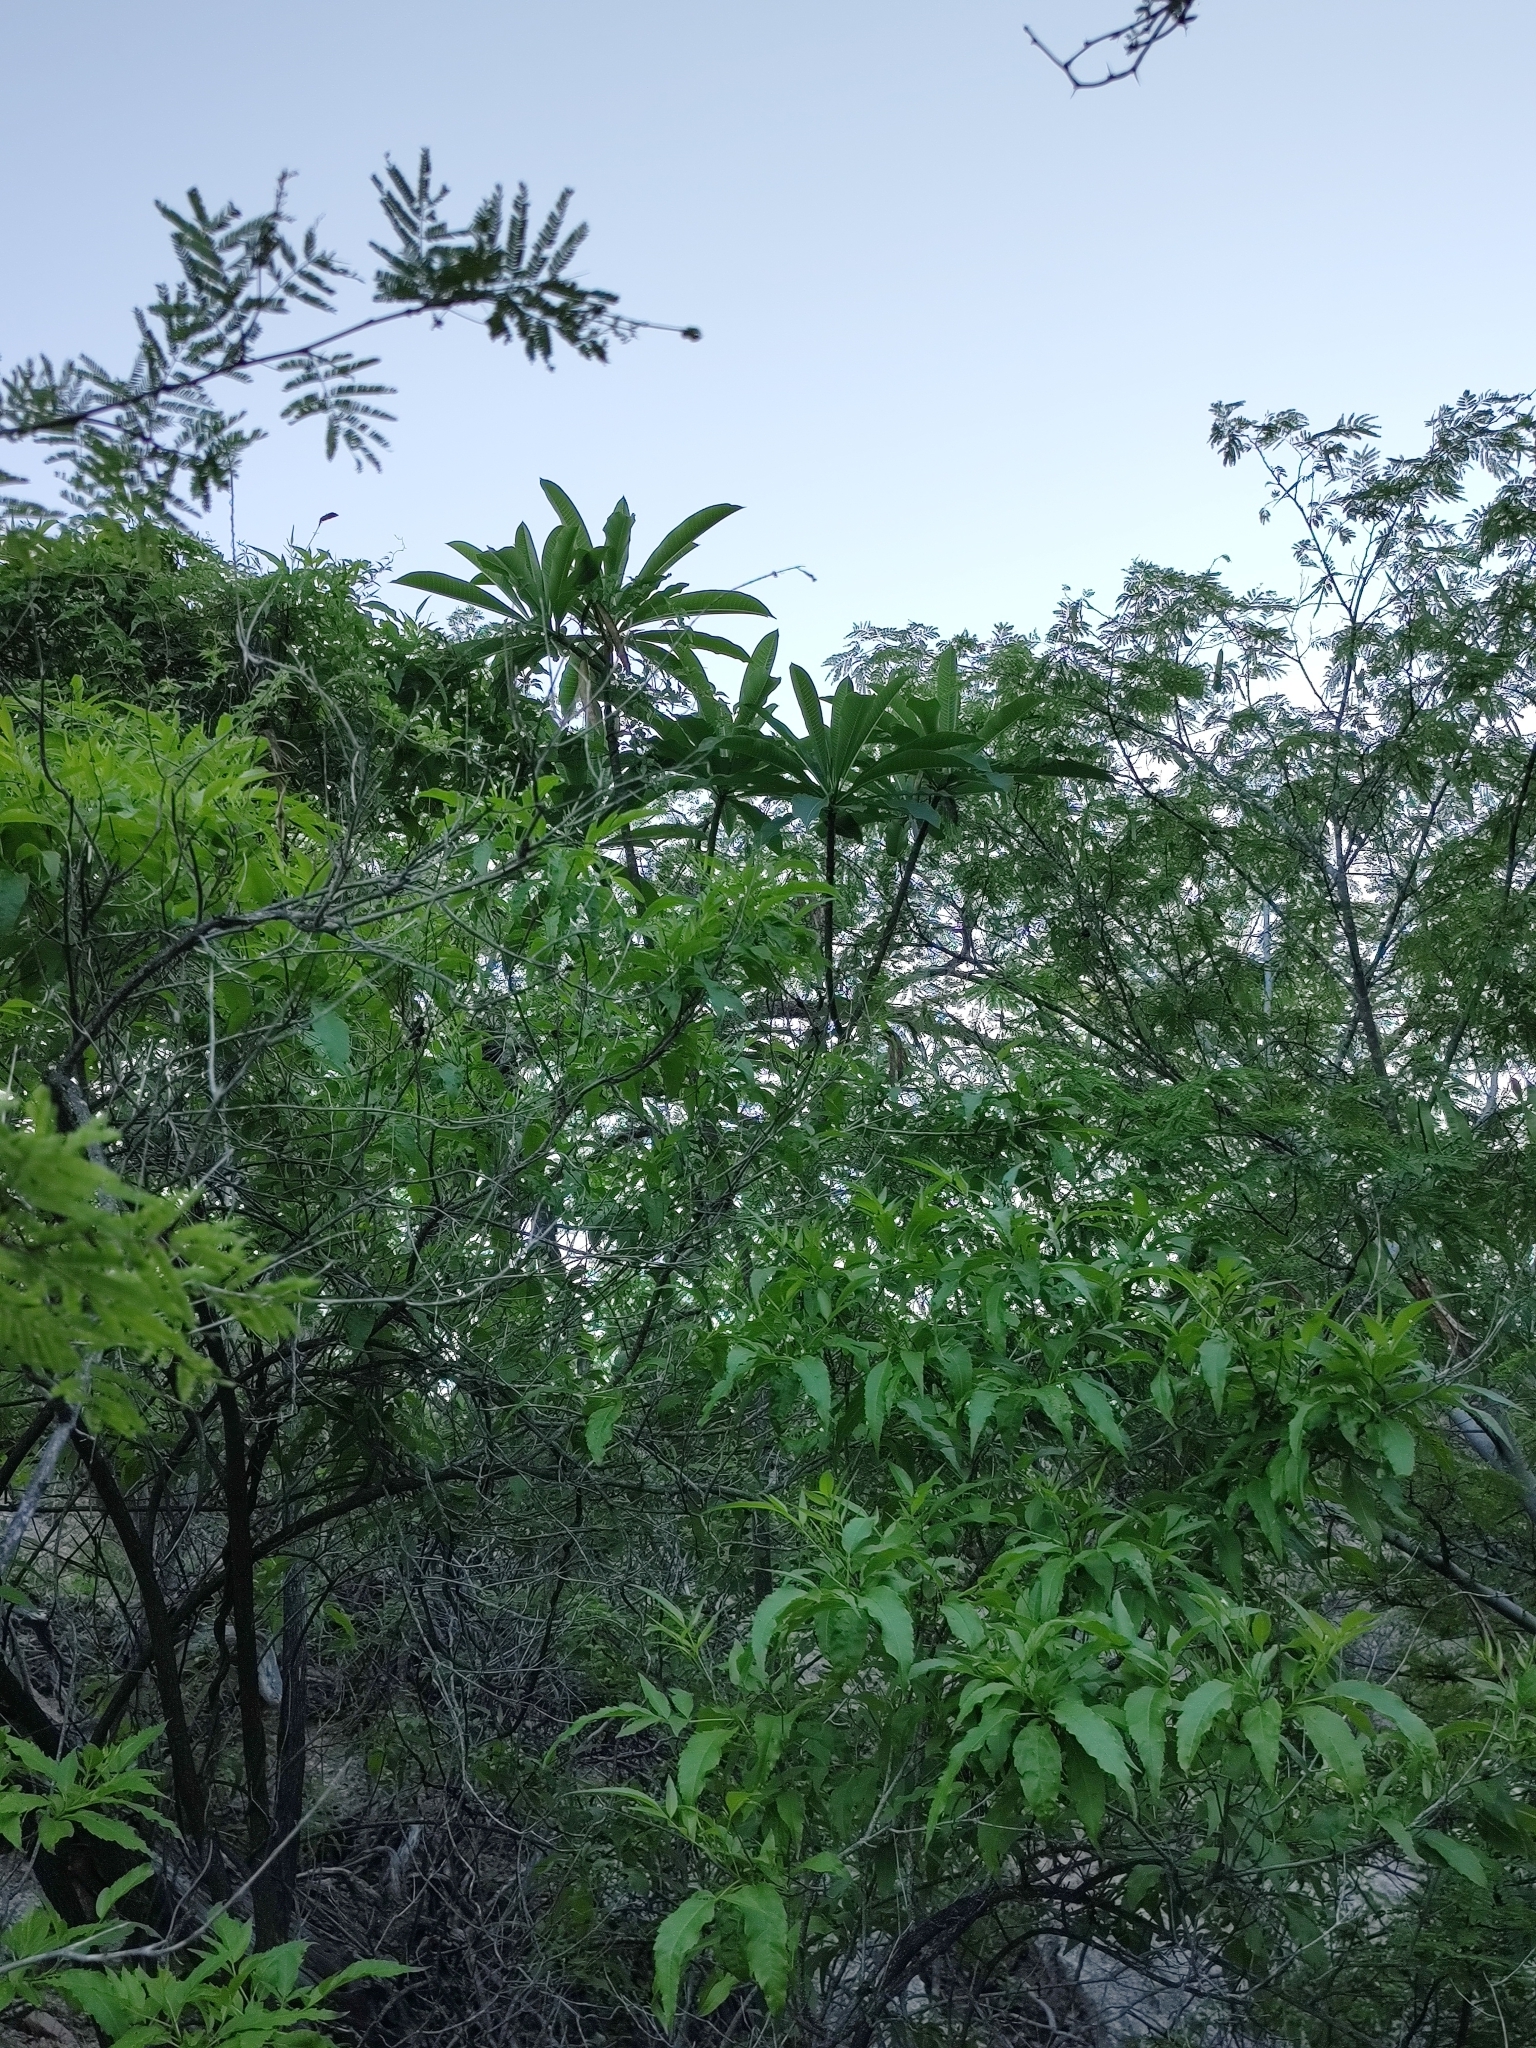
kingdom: Plantae
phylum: Tracheophyta
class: Magnoliopsida
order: Gentianales
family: Apocynaceae
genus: Plumeria
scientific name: Plumeria rubra
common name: Pagoda-tree
